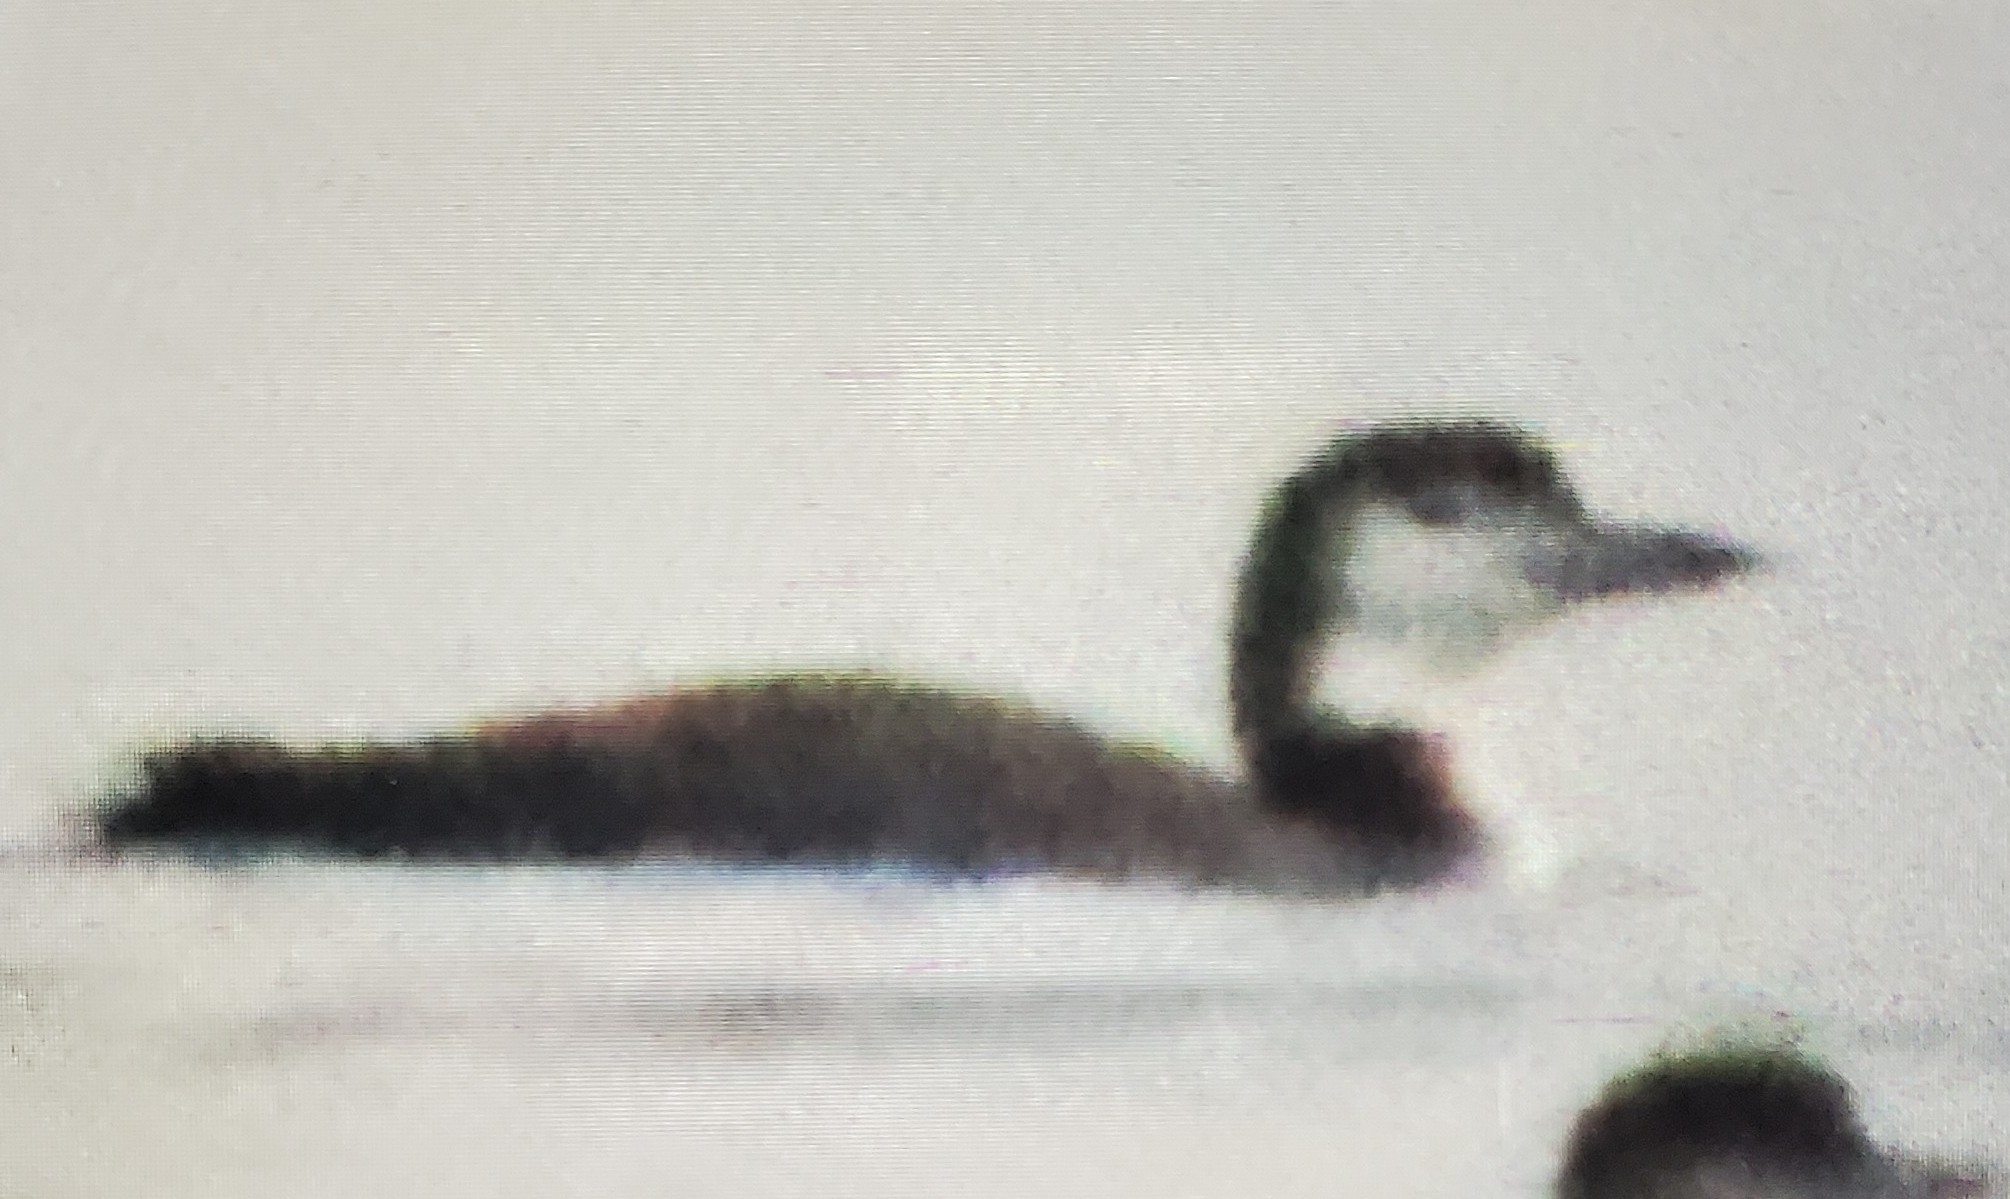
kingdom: Animalia
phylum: Chordata
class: Aves
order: Gaviiformes
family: Gaviidae
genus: Gavia
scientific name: Gavia immer
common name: Common loon
